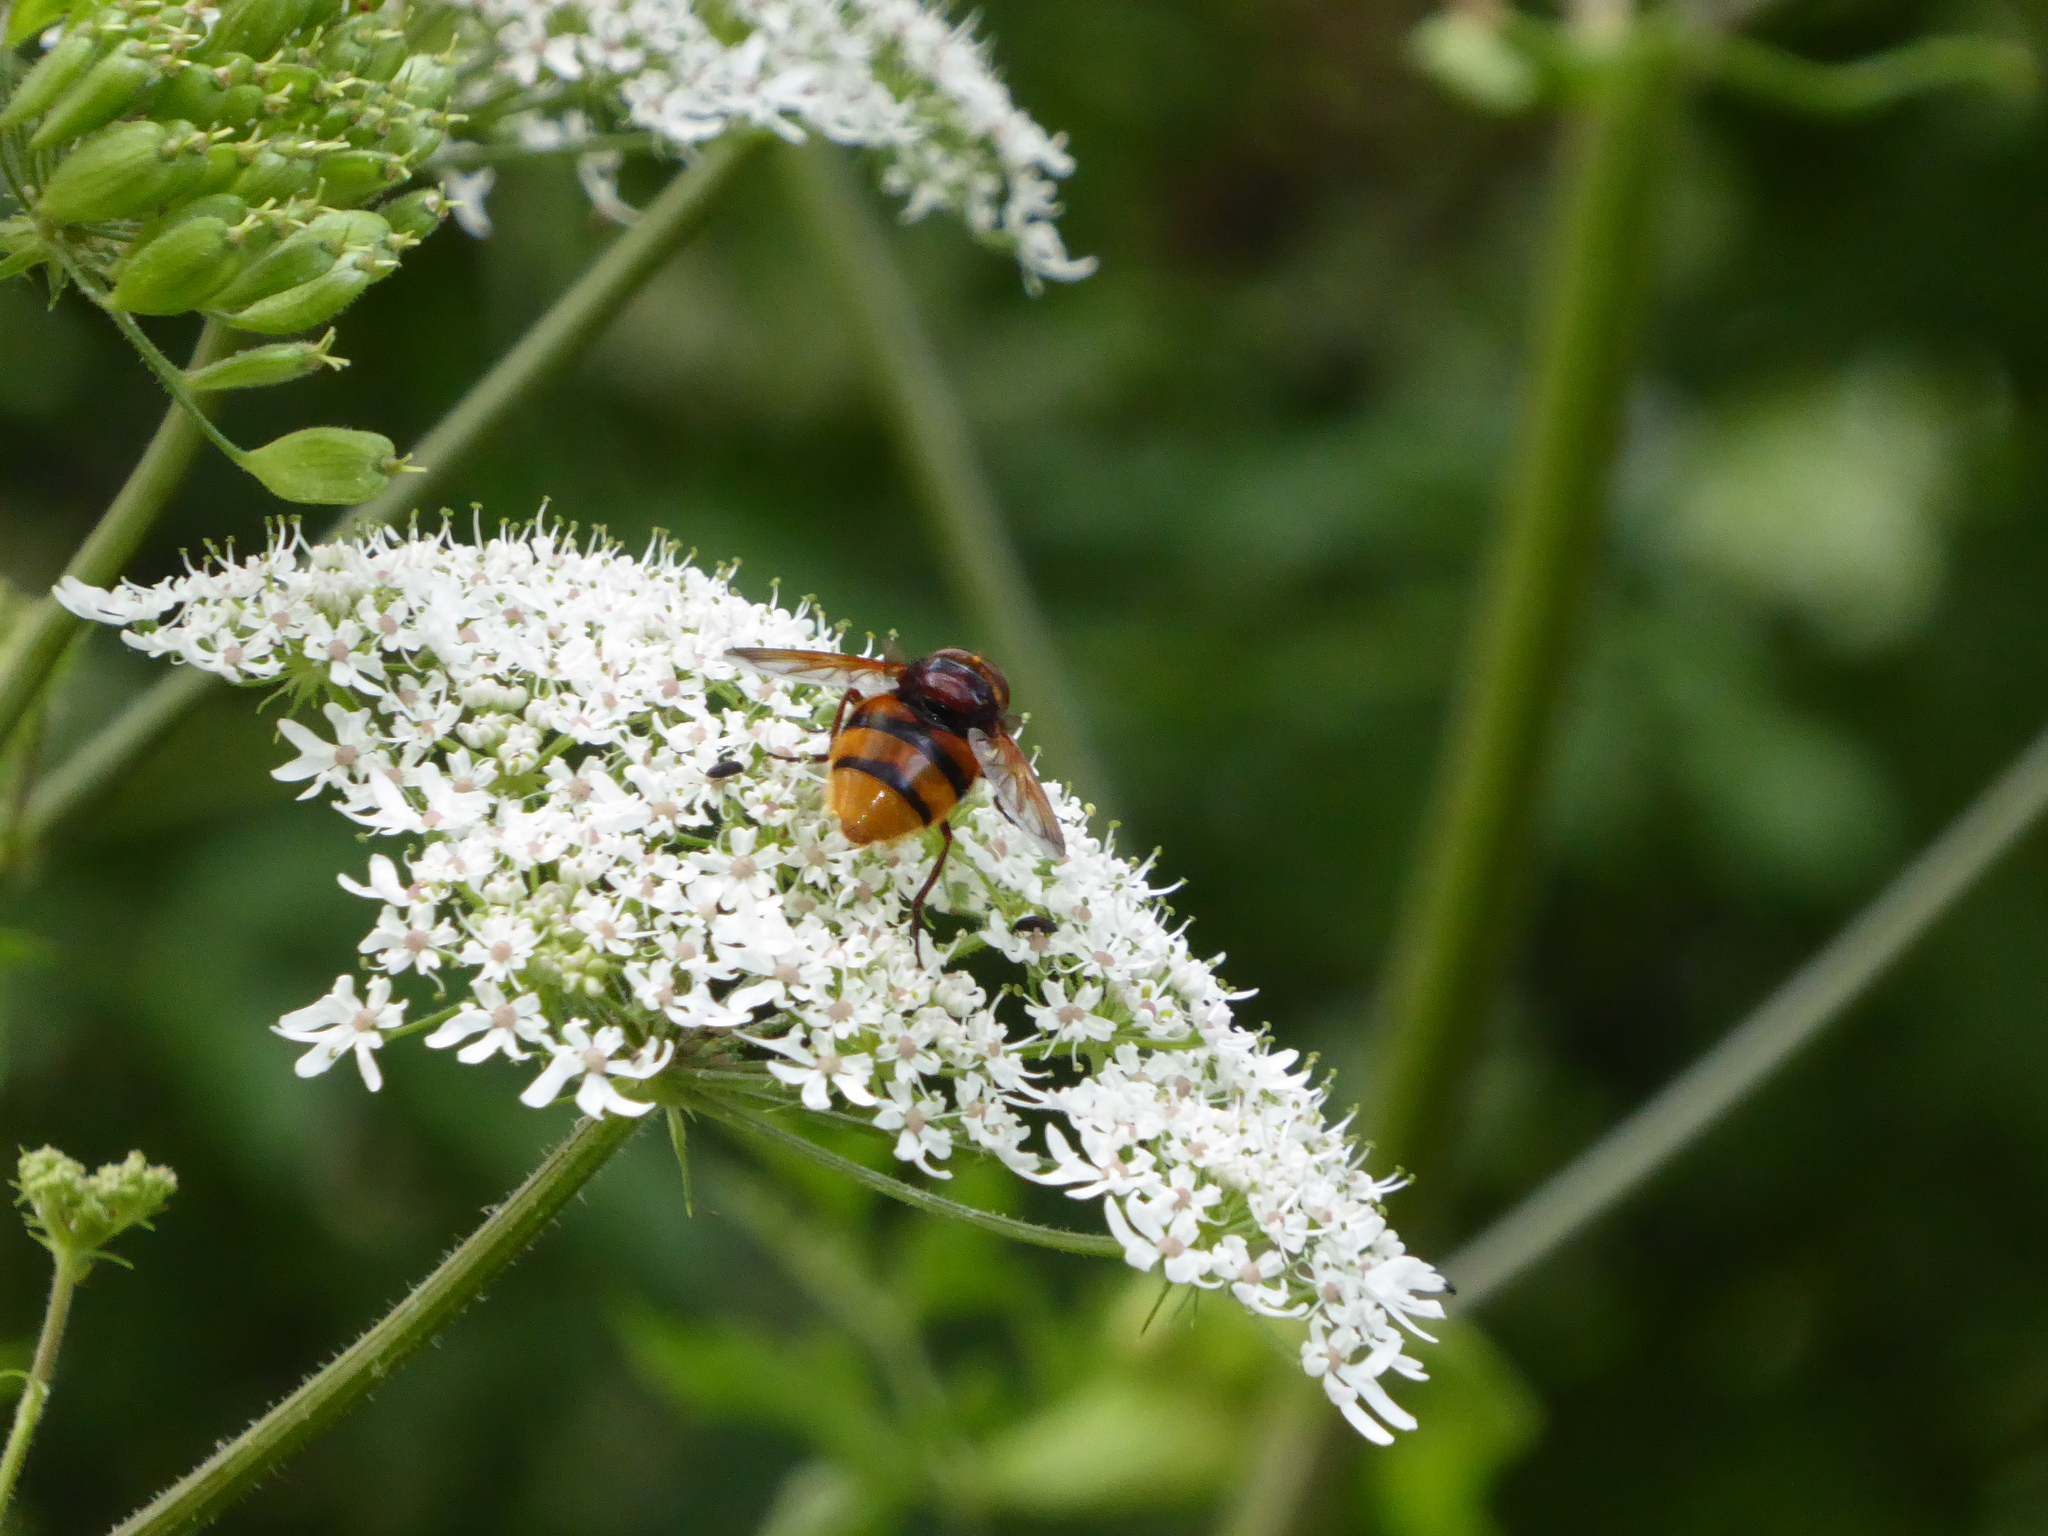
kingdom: Animalia
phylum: Arthropoda
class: Insecta
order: Diptera
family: Syrphidae
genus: Volucella
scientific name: Volucella zonaria
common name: Hornet hoverfly
